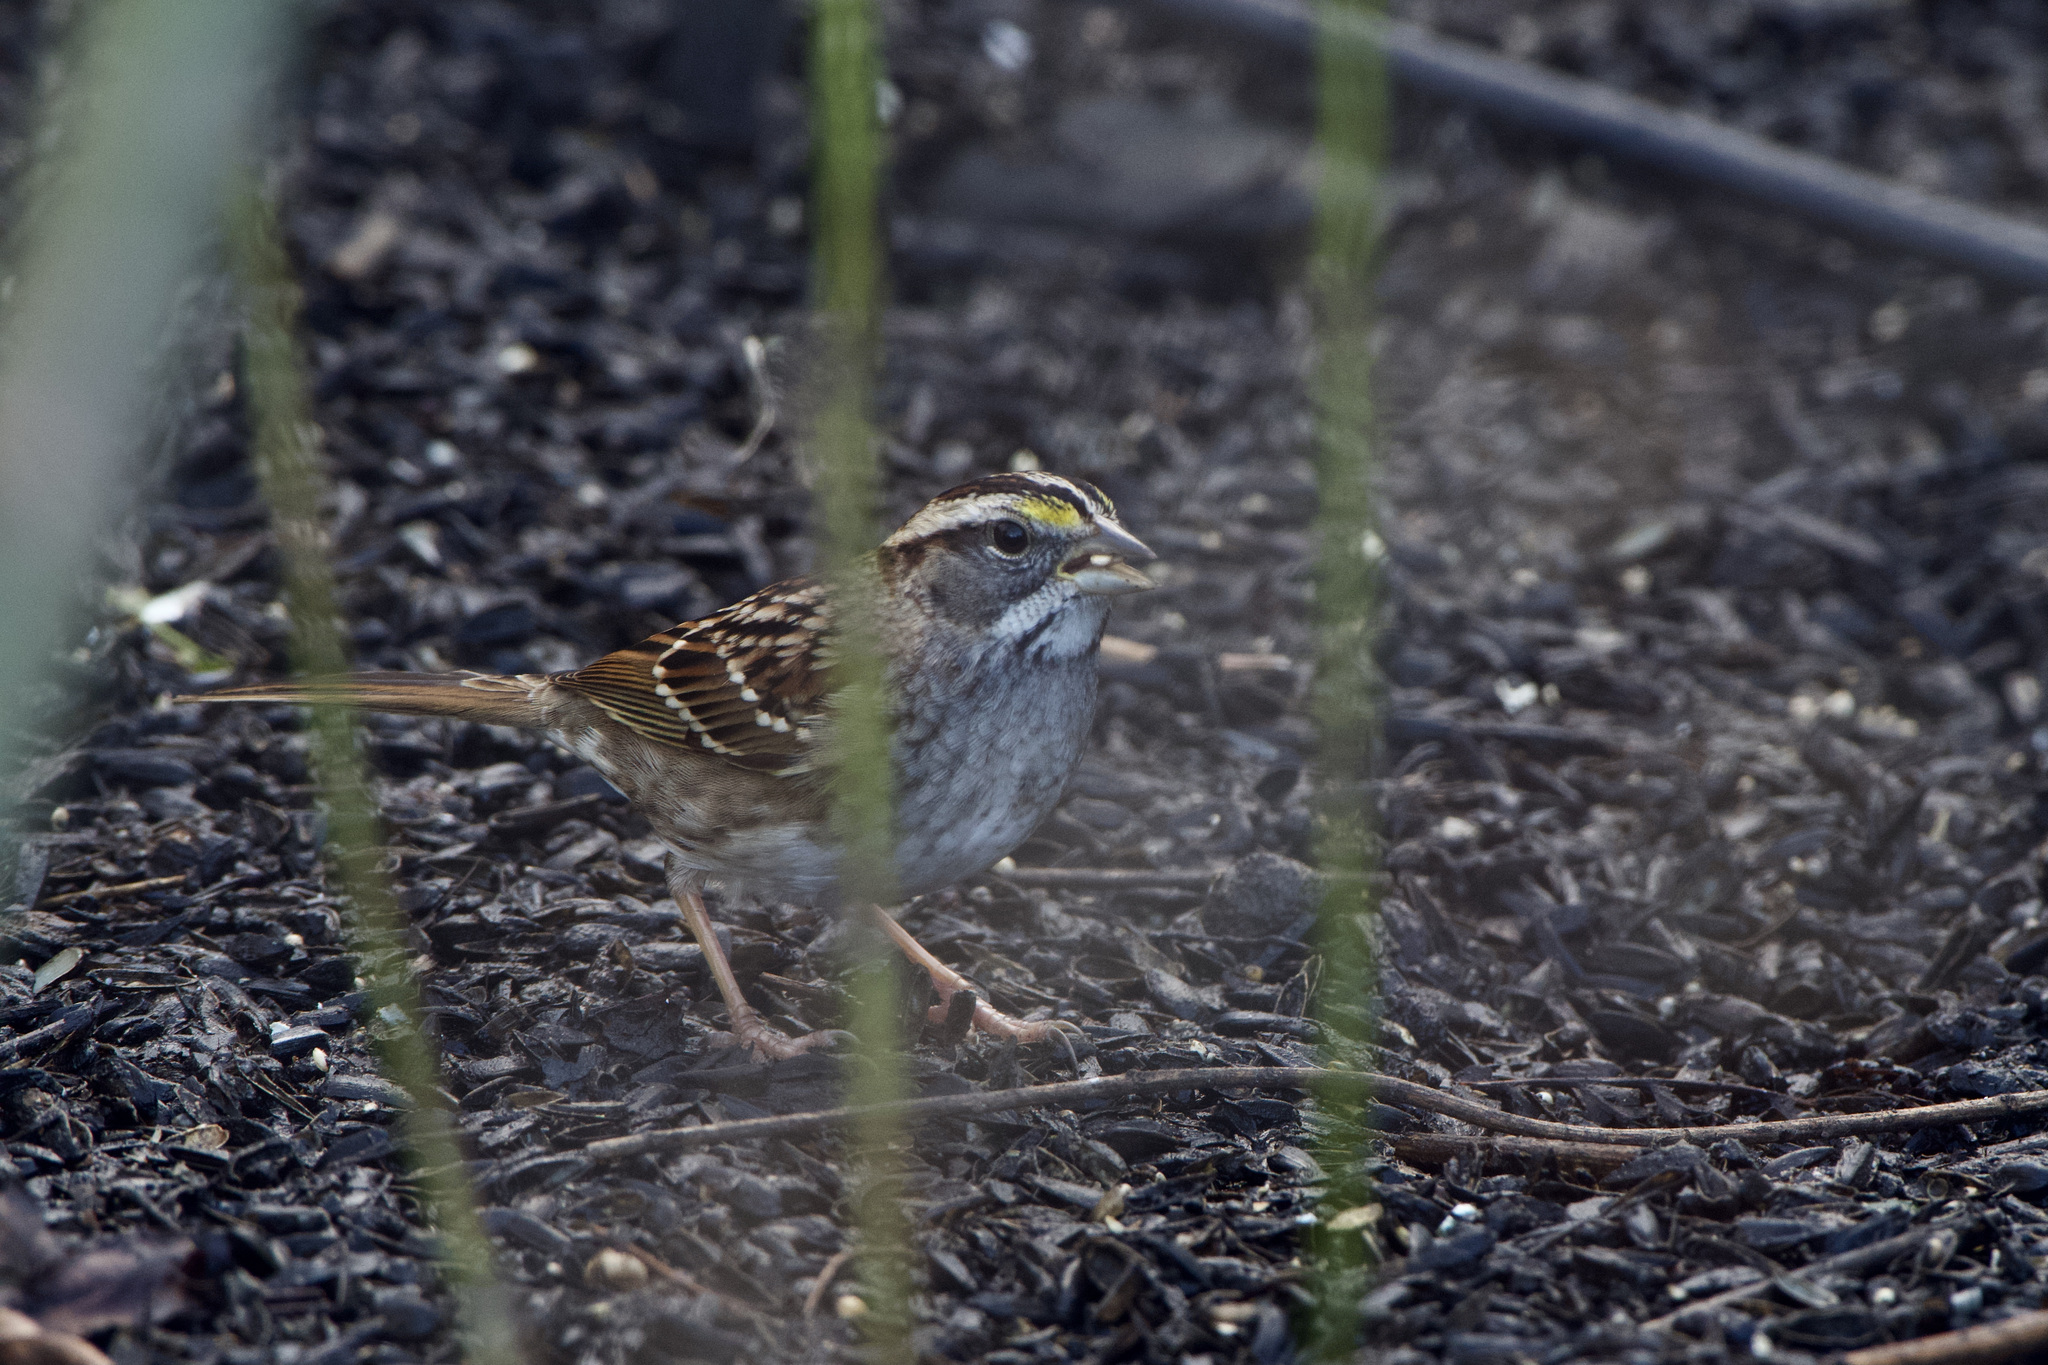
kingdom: Animalia
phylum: Chordata
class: Aves
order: Passeriformes
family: Passerellidae
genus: Zonotrichia
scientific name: Zonotrichia albicollis
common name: White-throated sparrow
